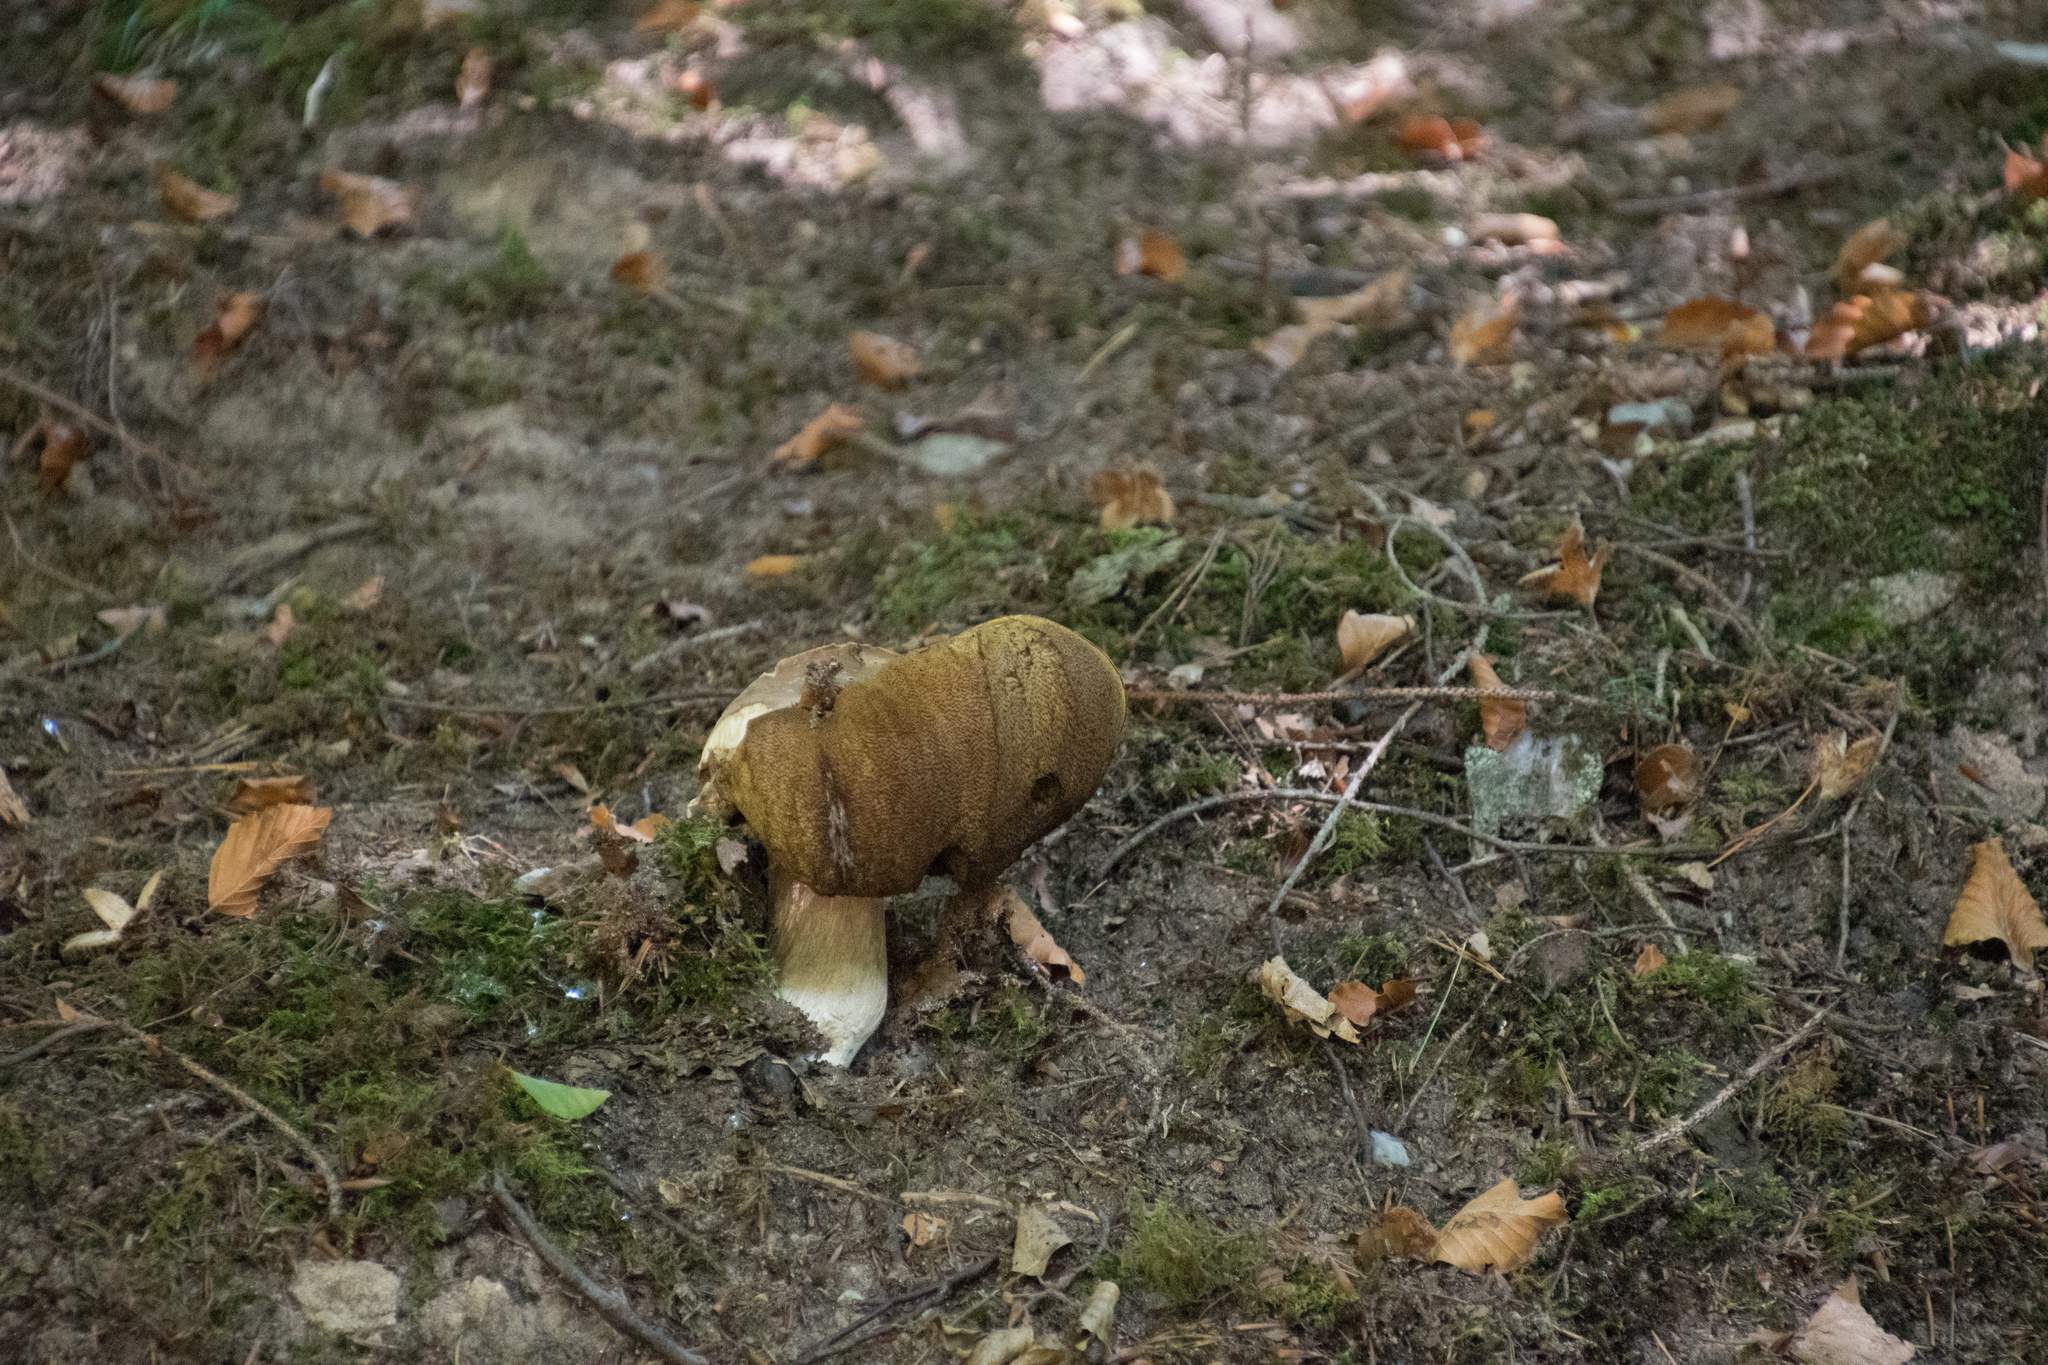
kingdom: Fungi
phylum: Basidiomycota
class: Agaricomycetes
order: Boletales
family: Boletaceae
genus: Boletus
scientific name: Boletus edulis
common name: Cep
